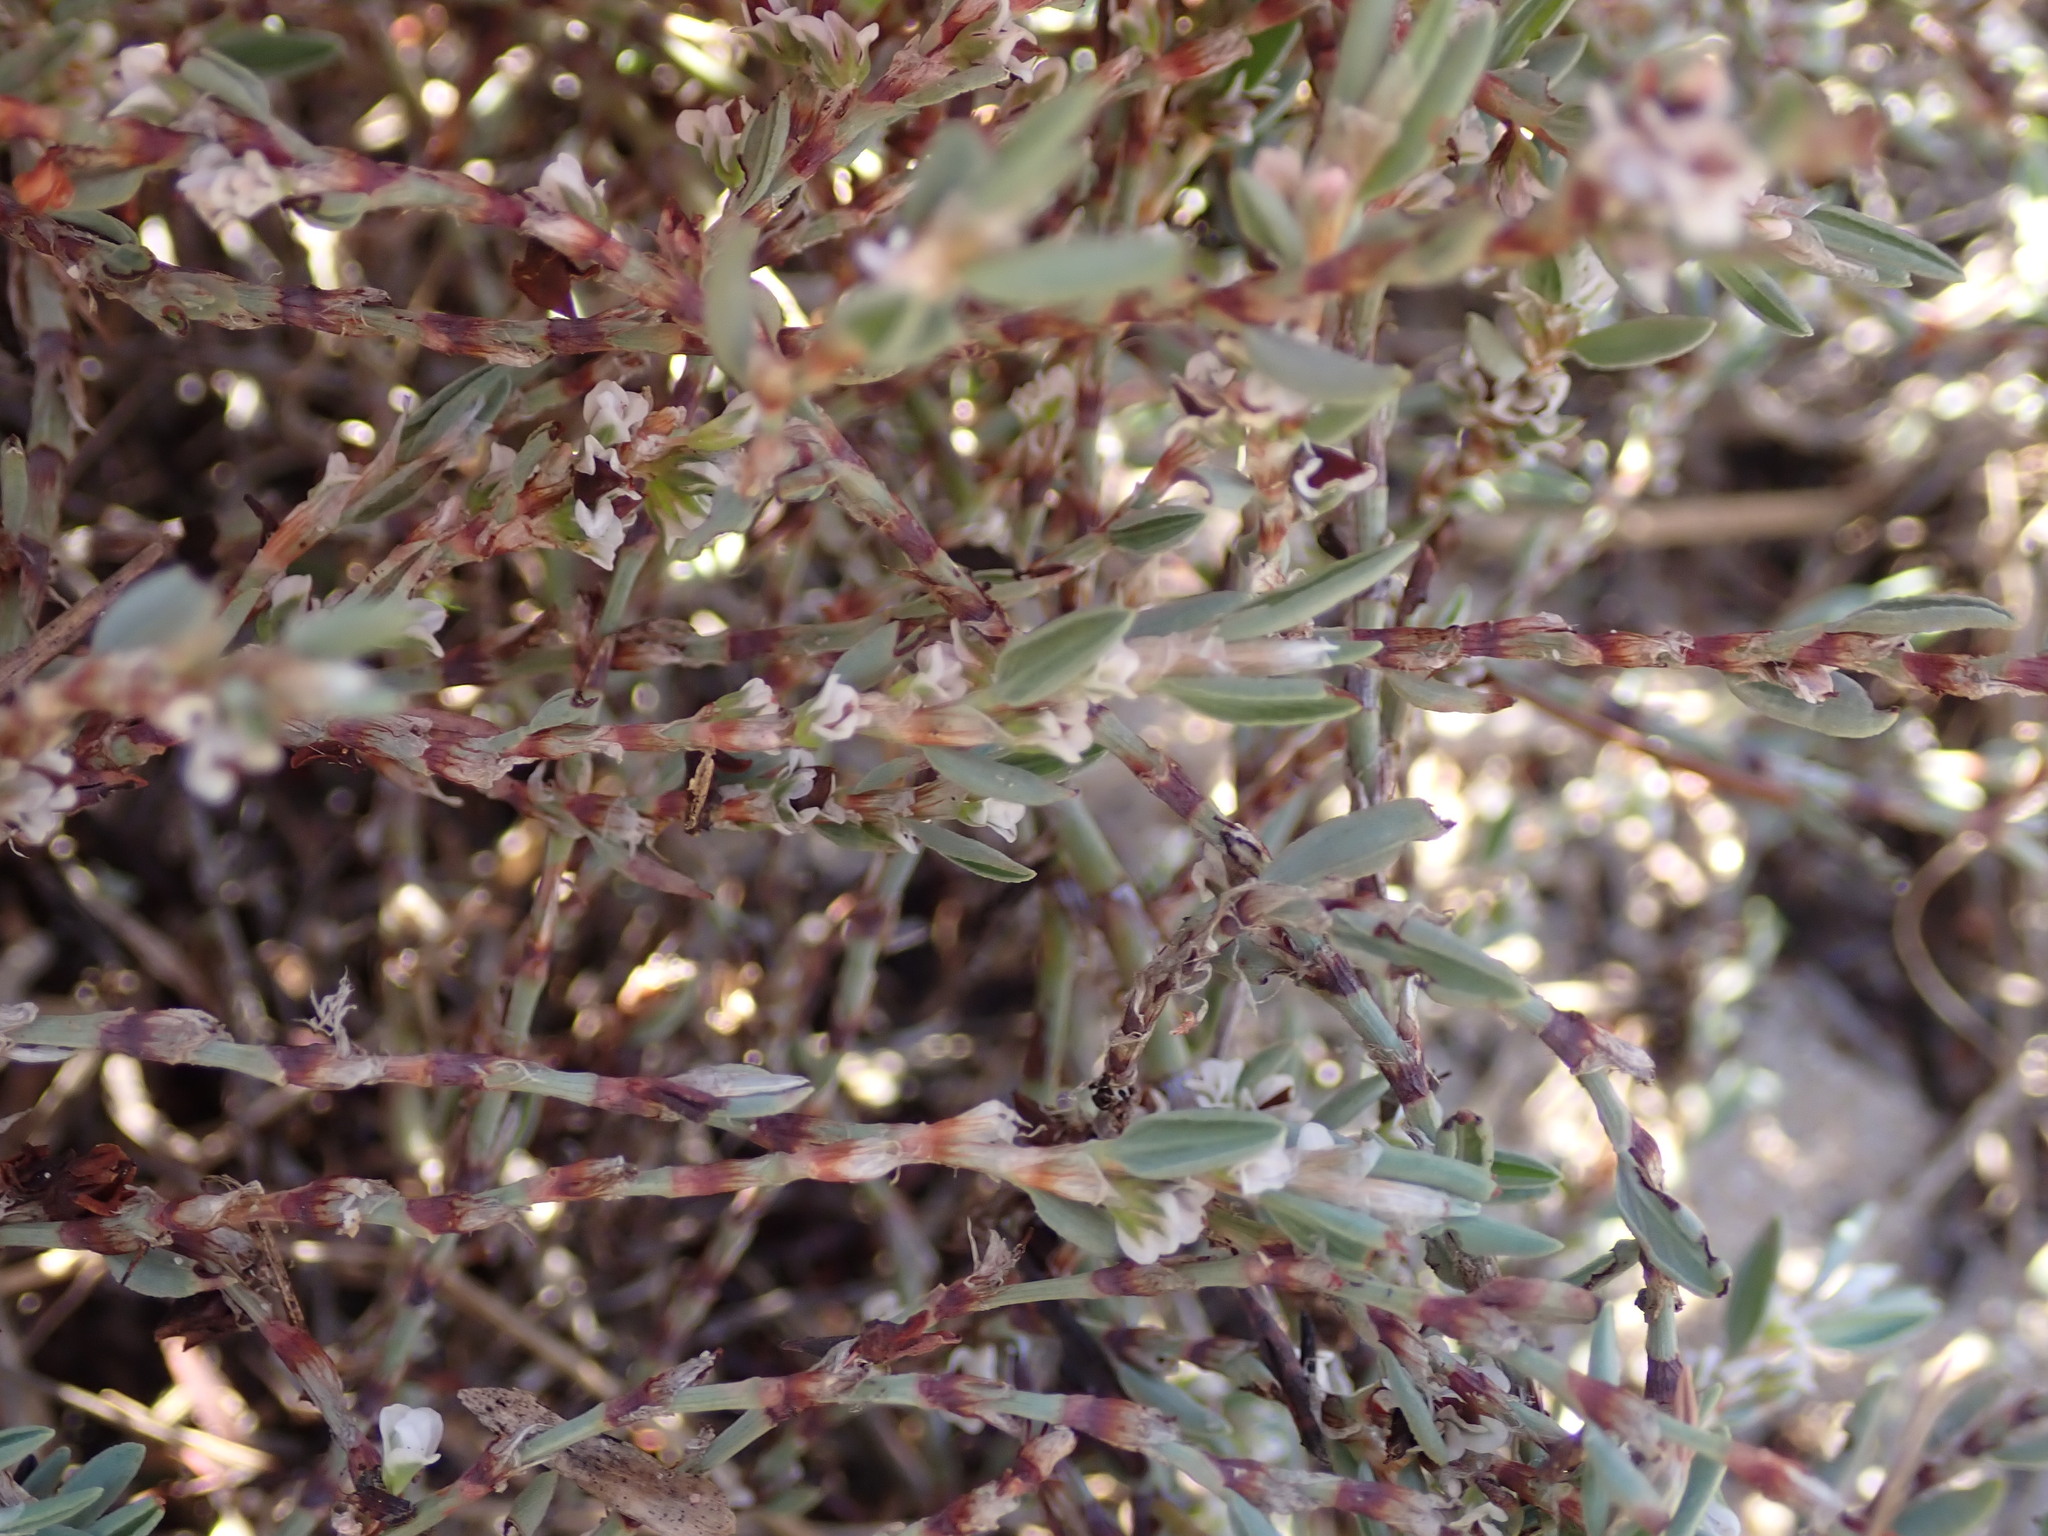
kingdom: Plantae
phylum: Tracheophyta
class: Magnoliopsida
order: Caryophyllales
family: Polygonaceae
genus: Polygonum
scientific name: Polygonum maritimum
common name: Sea knotgrass
